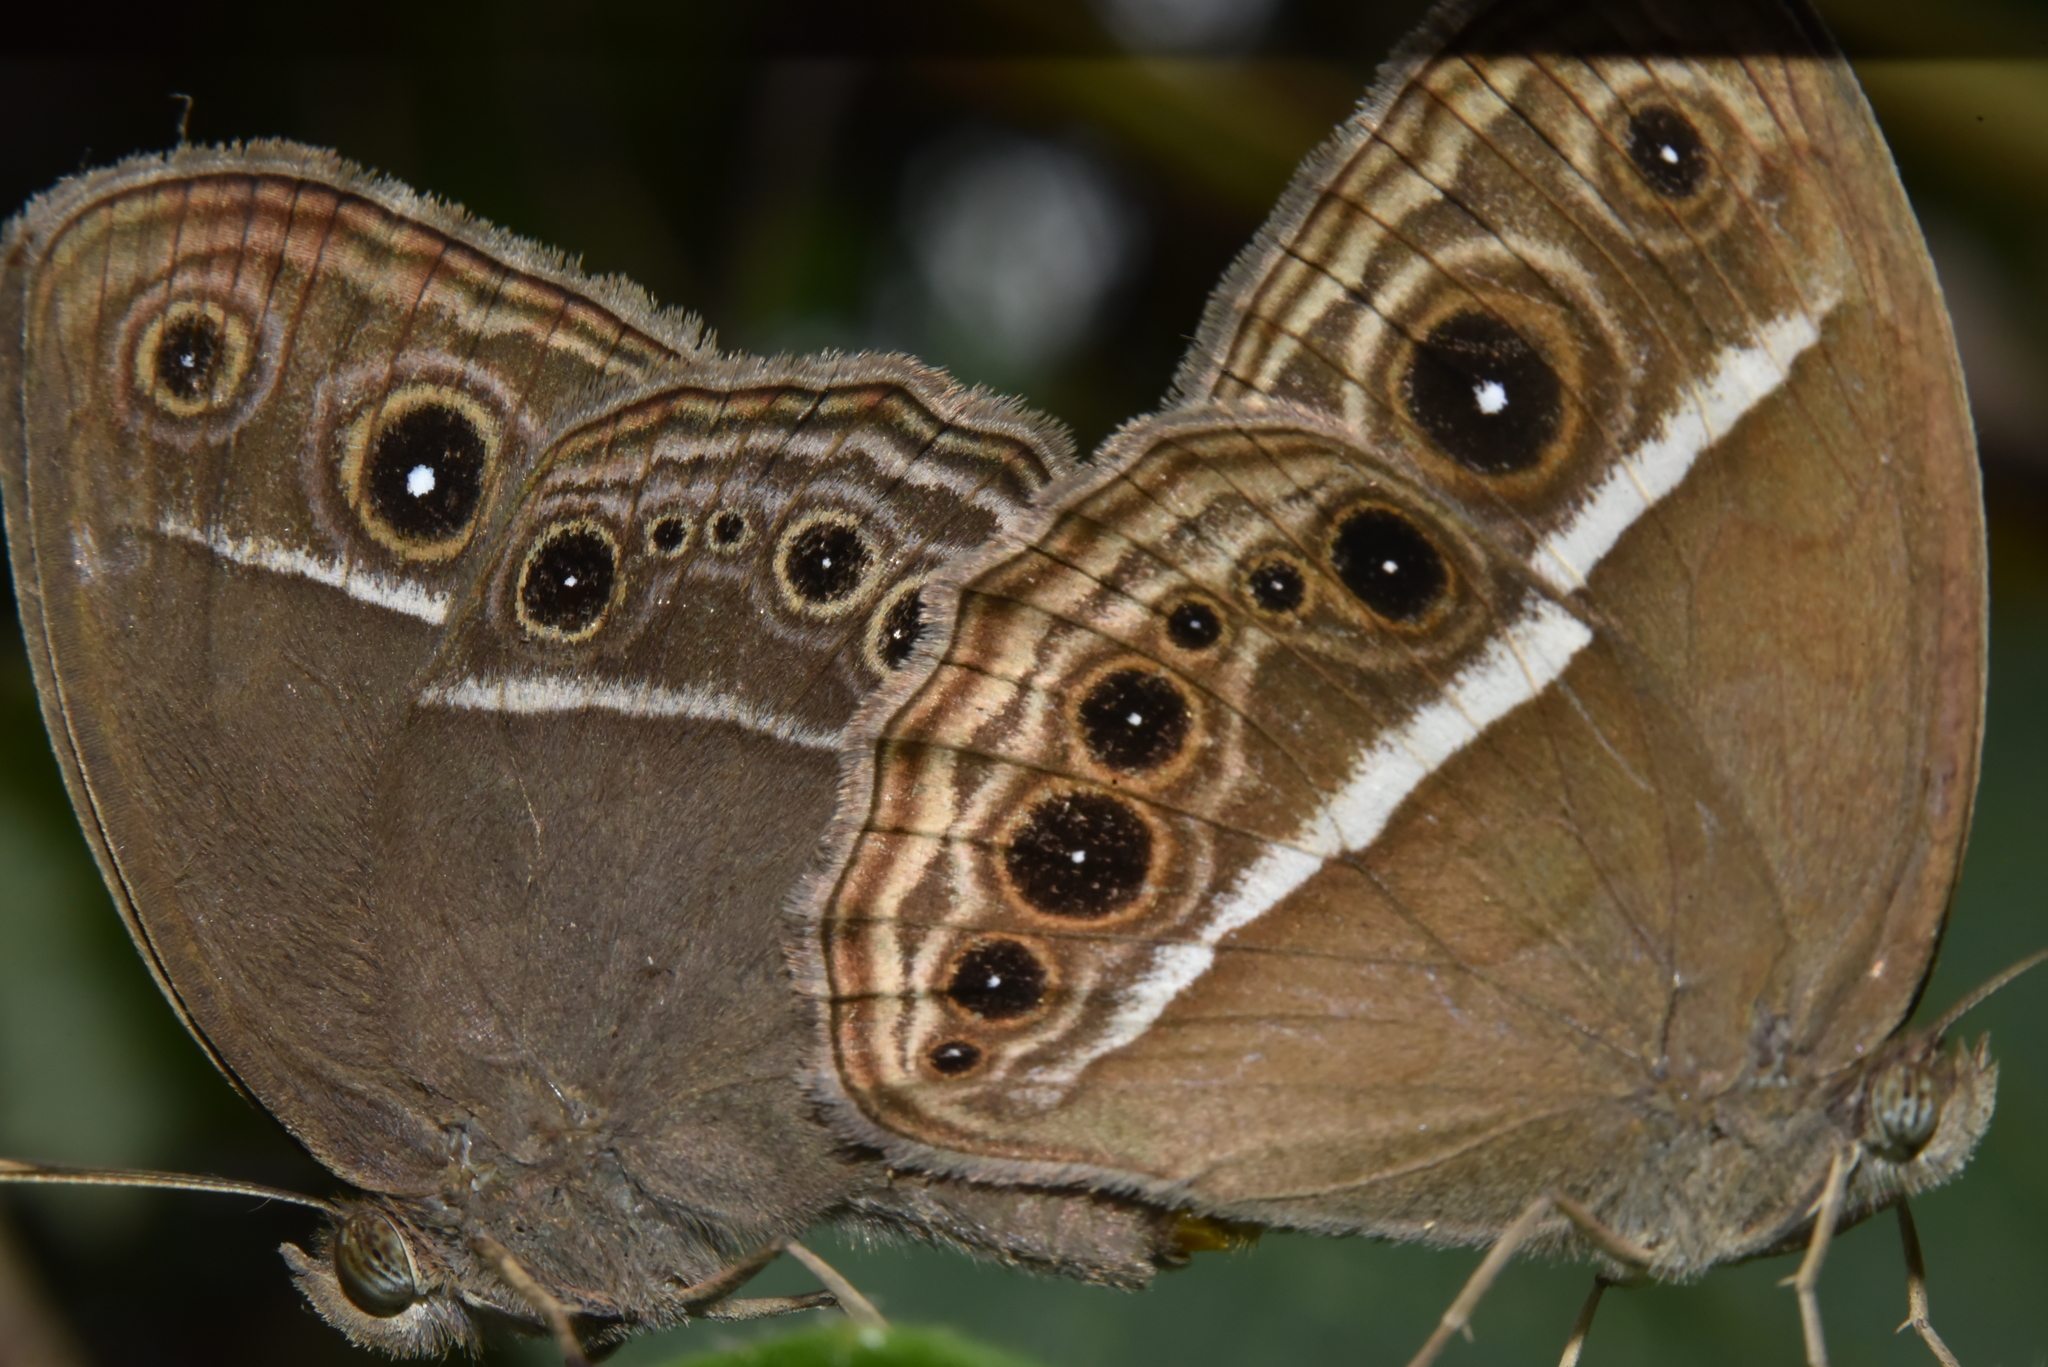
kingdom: Animalia
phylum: Arthropoda
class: Insecta
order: Lepidoptera
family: Nymphalidae
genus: Mycalesis
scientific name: Mycalesis mineus
